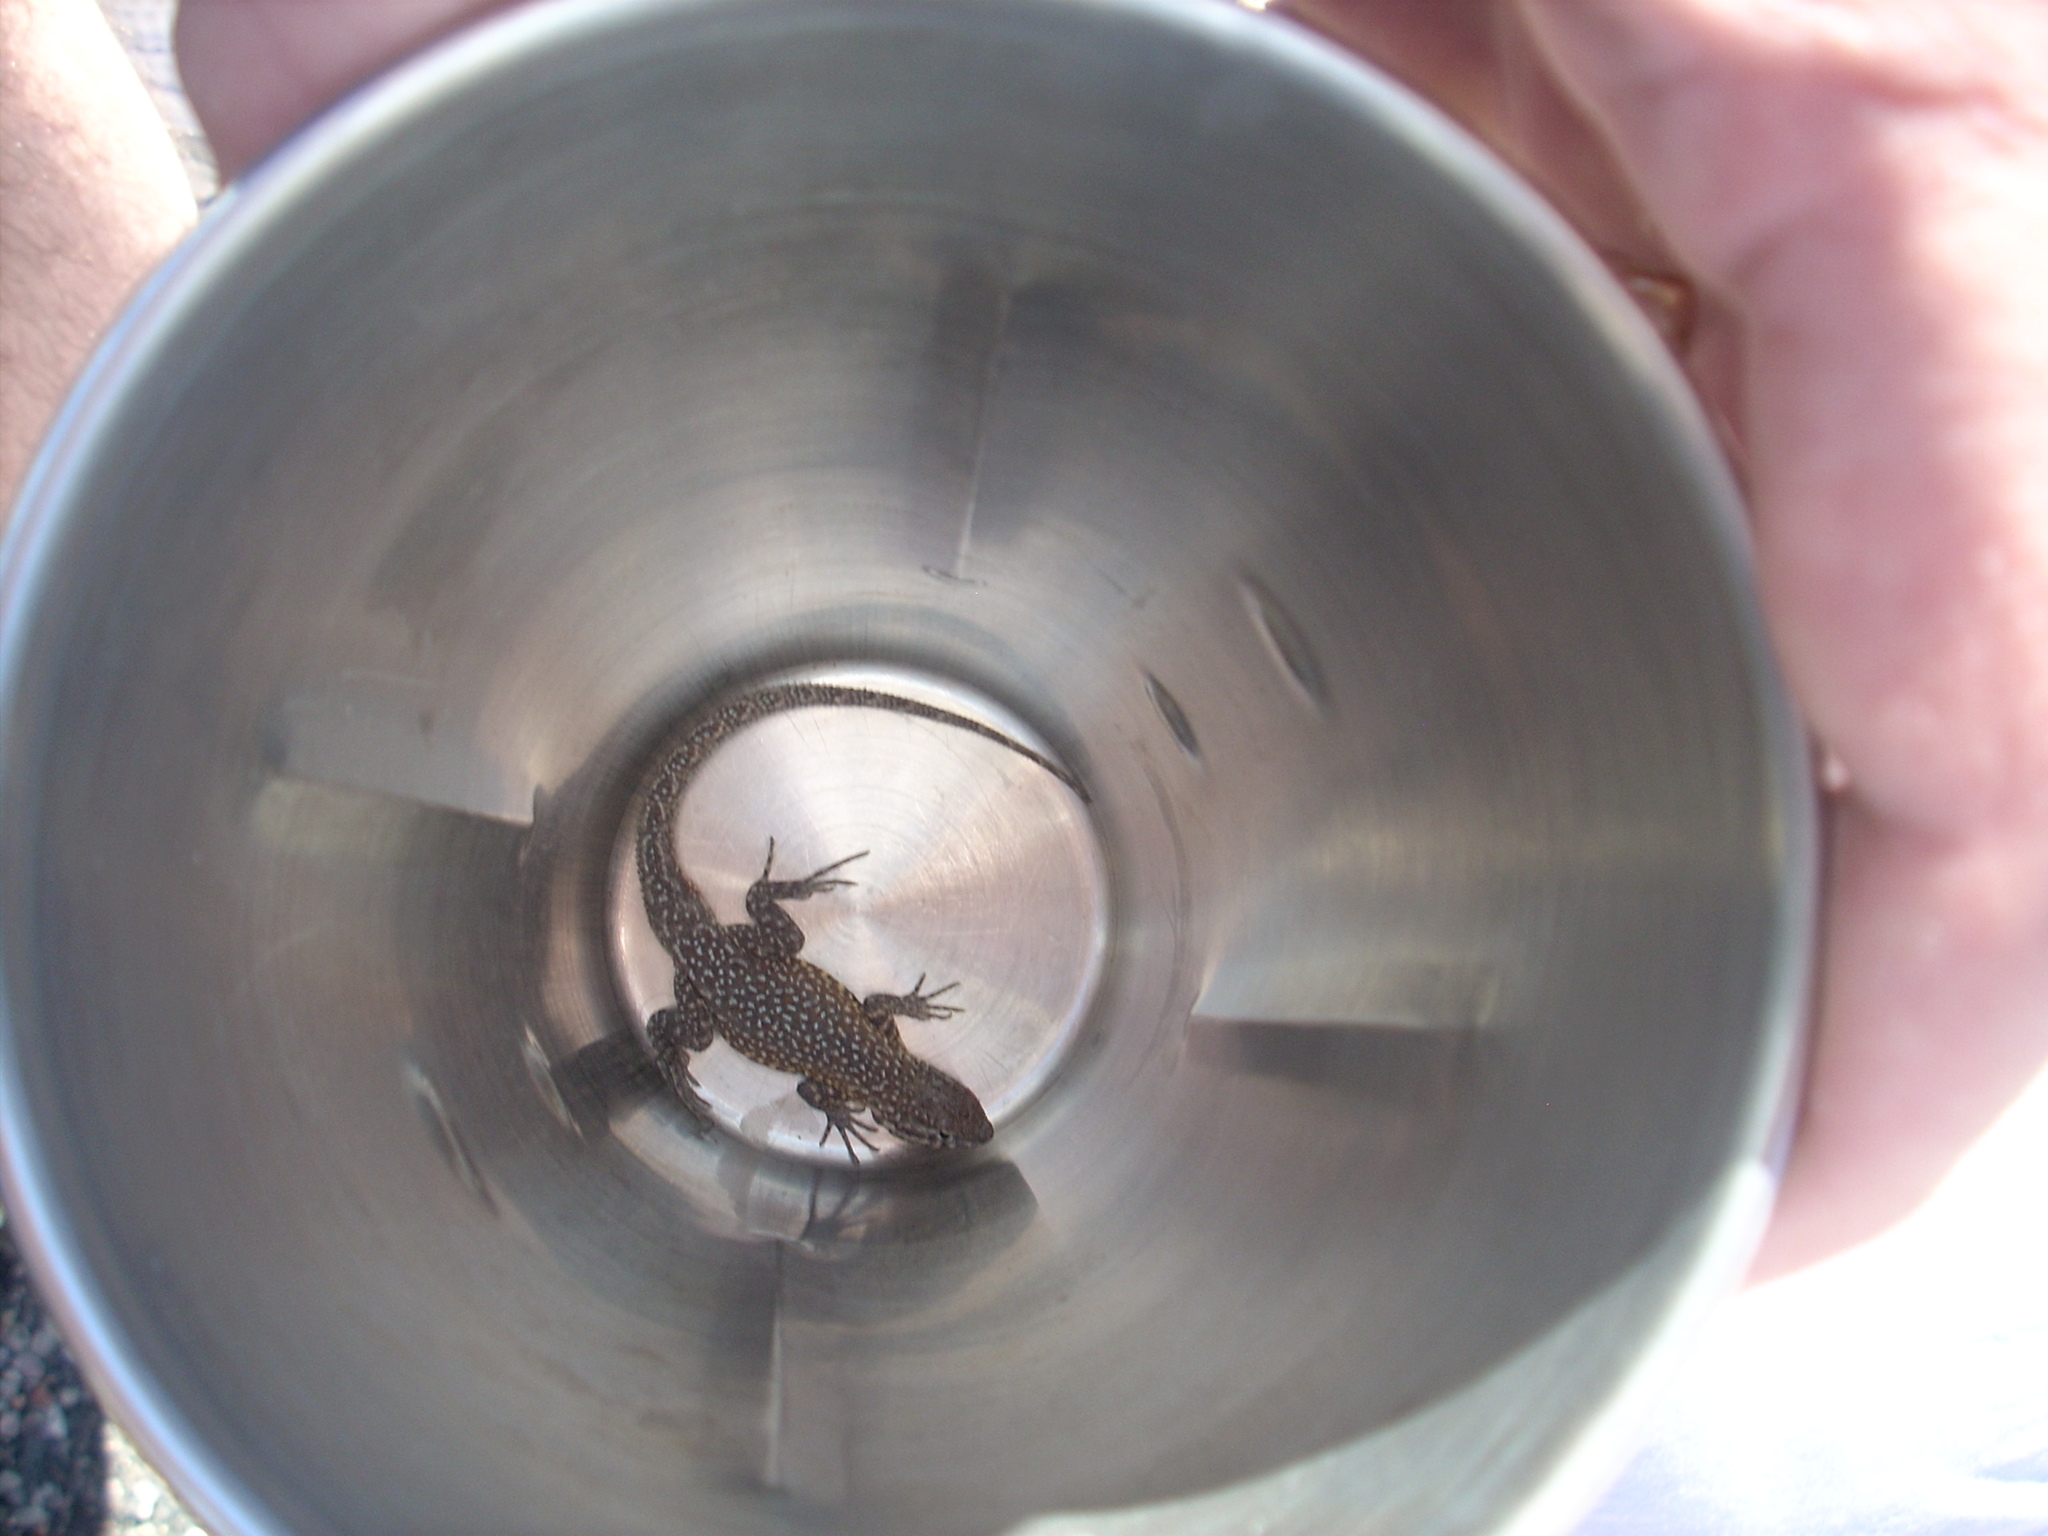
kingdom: Animalia
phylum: Chordata
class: Squamata
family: Phrynosomatidae
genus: Uta
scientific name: Uta stansburiana
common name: Side-blotched lizard
